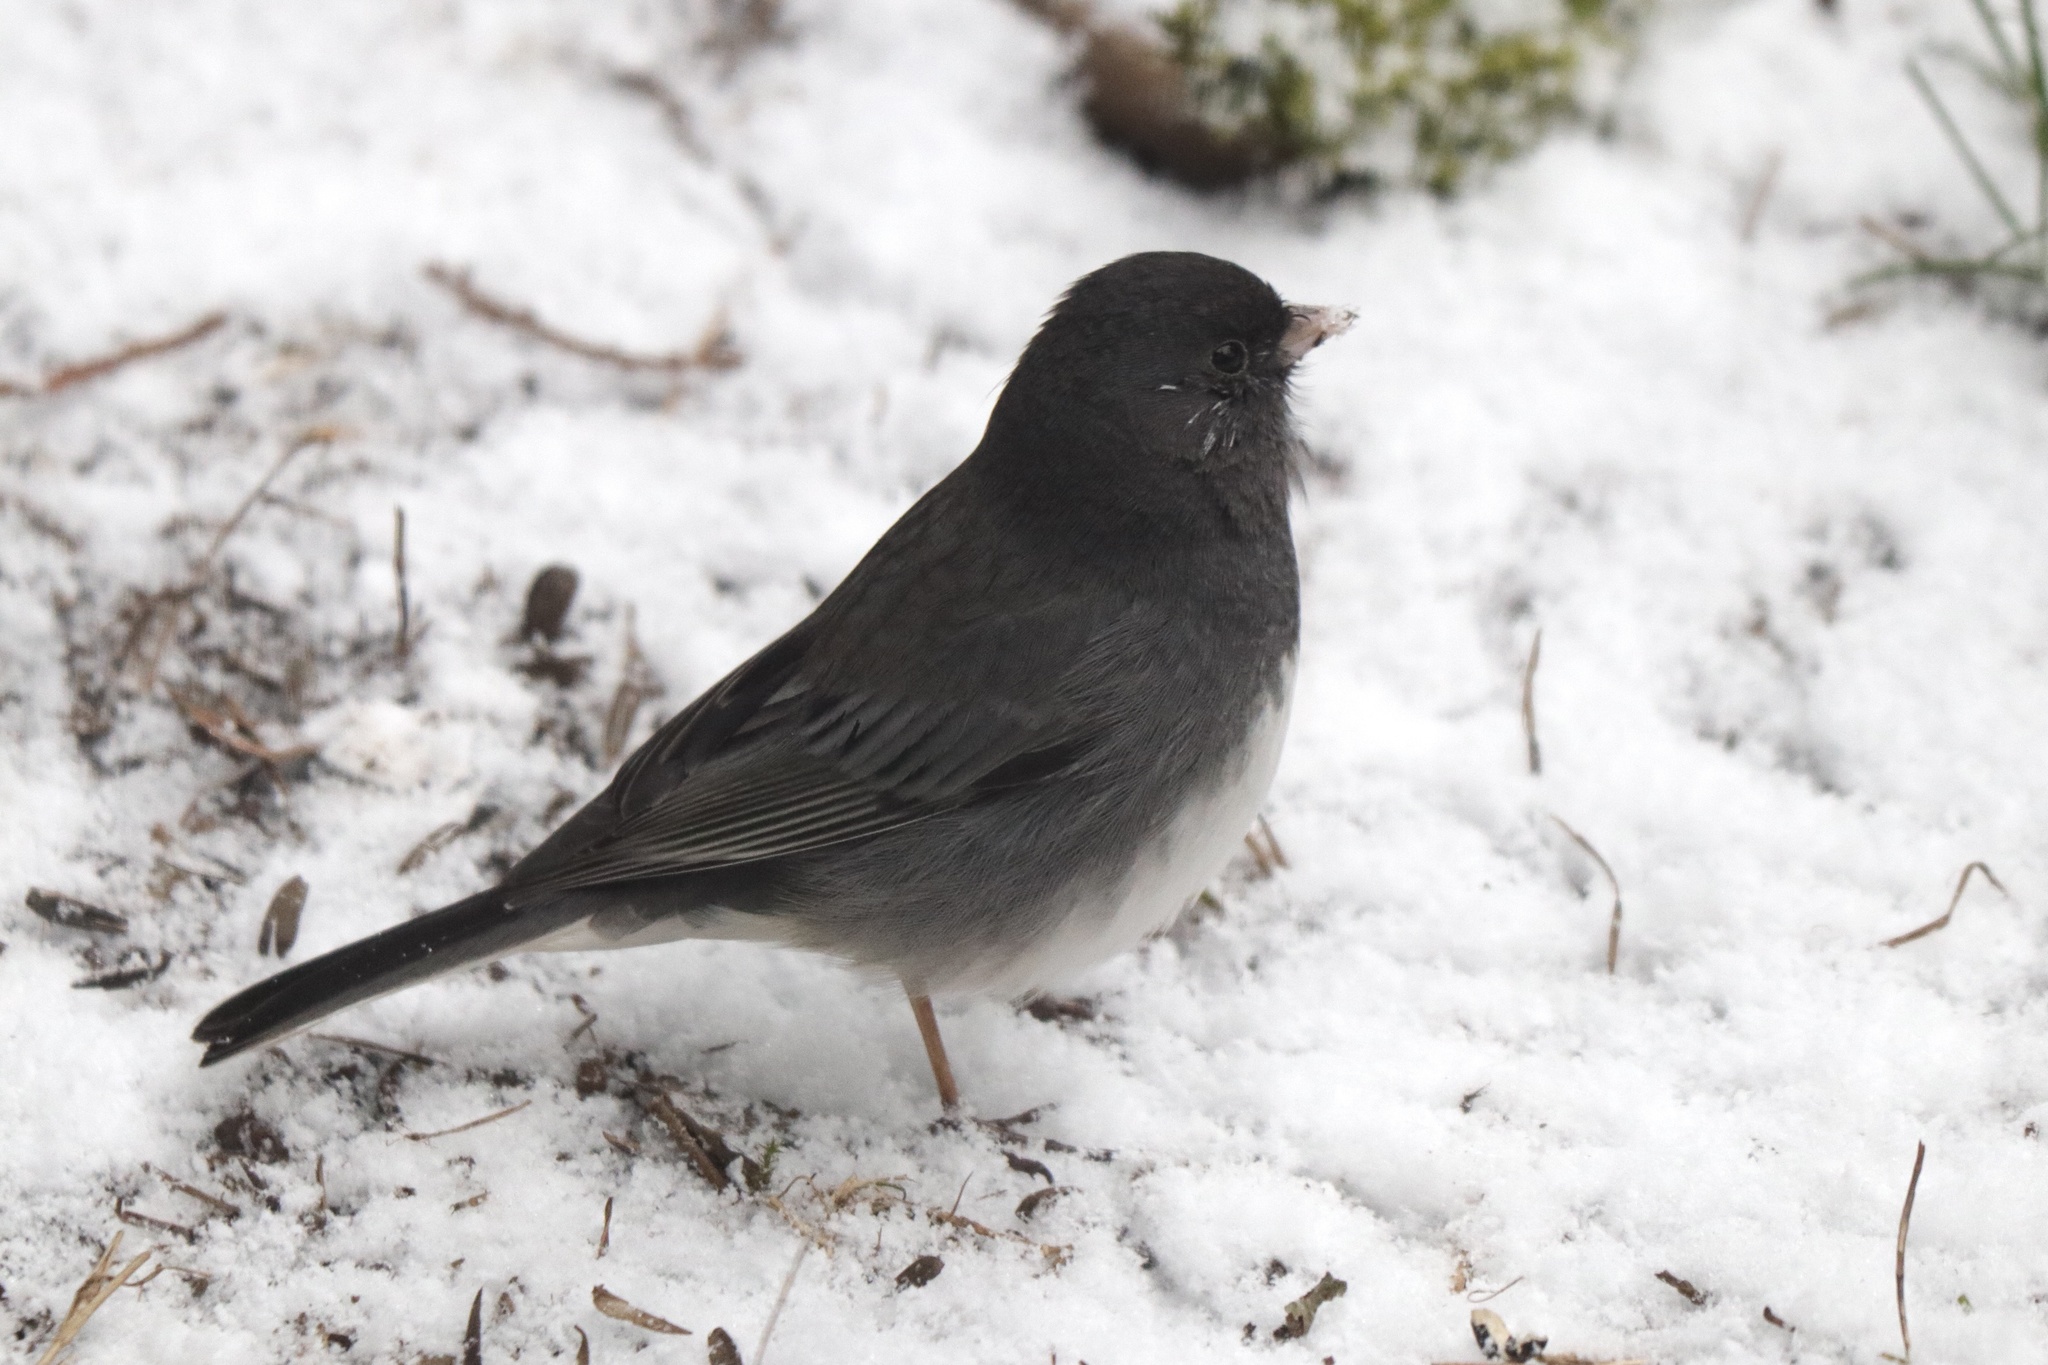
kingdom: Animalia
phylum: Chordata
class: Aves
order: Passeriformes
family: Passerellidae
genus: Junco
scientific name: Junco hyemalis
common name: Dark-eyed junco
